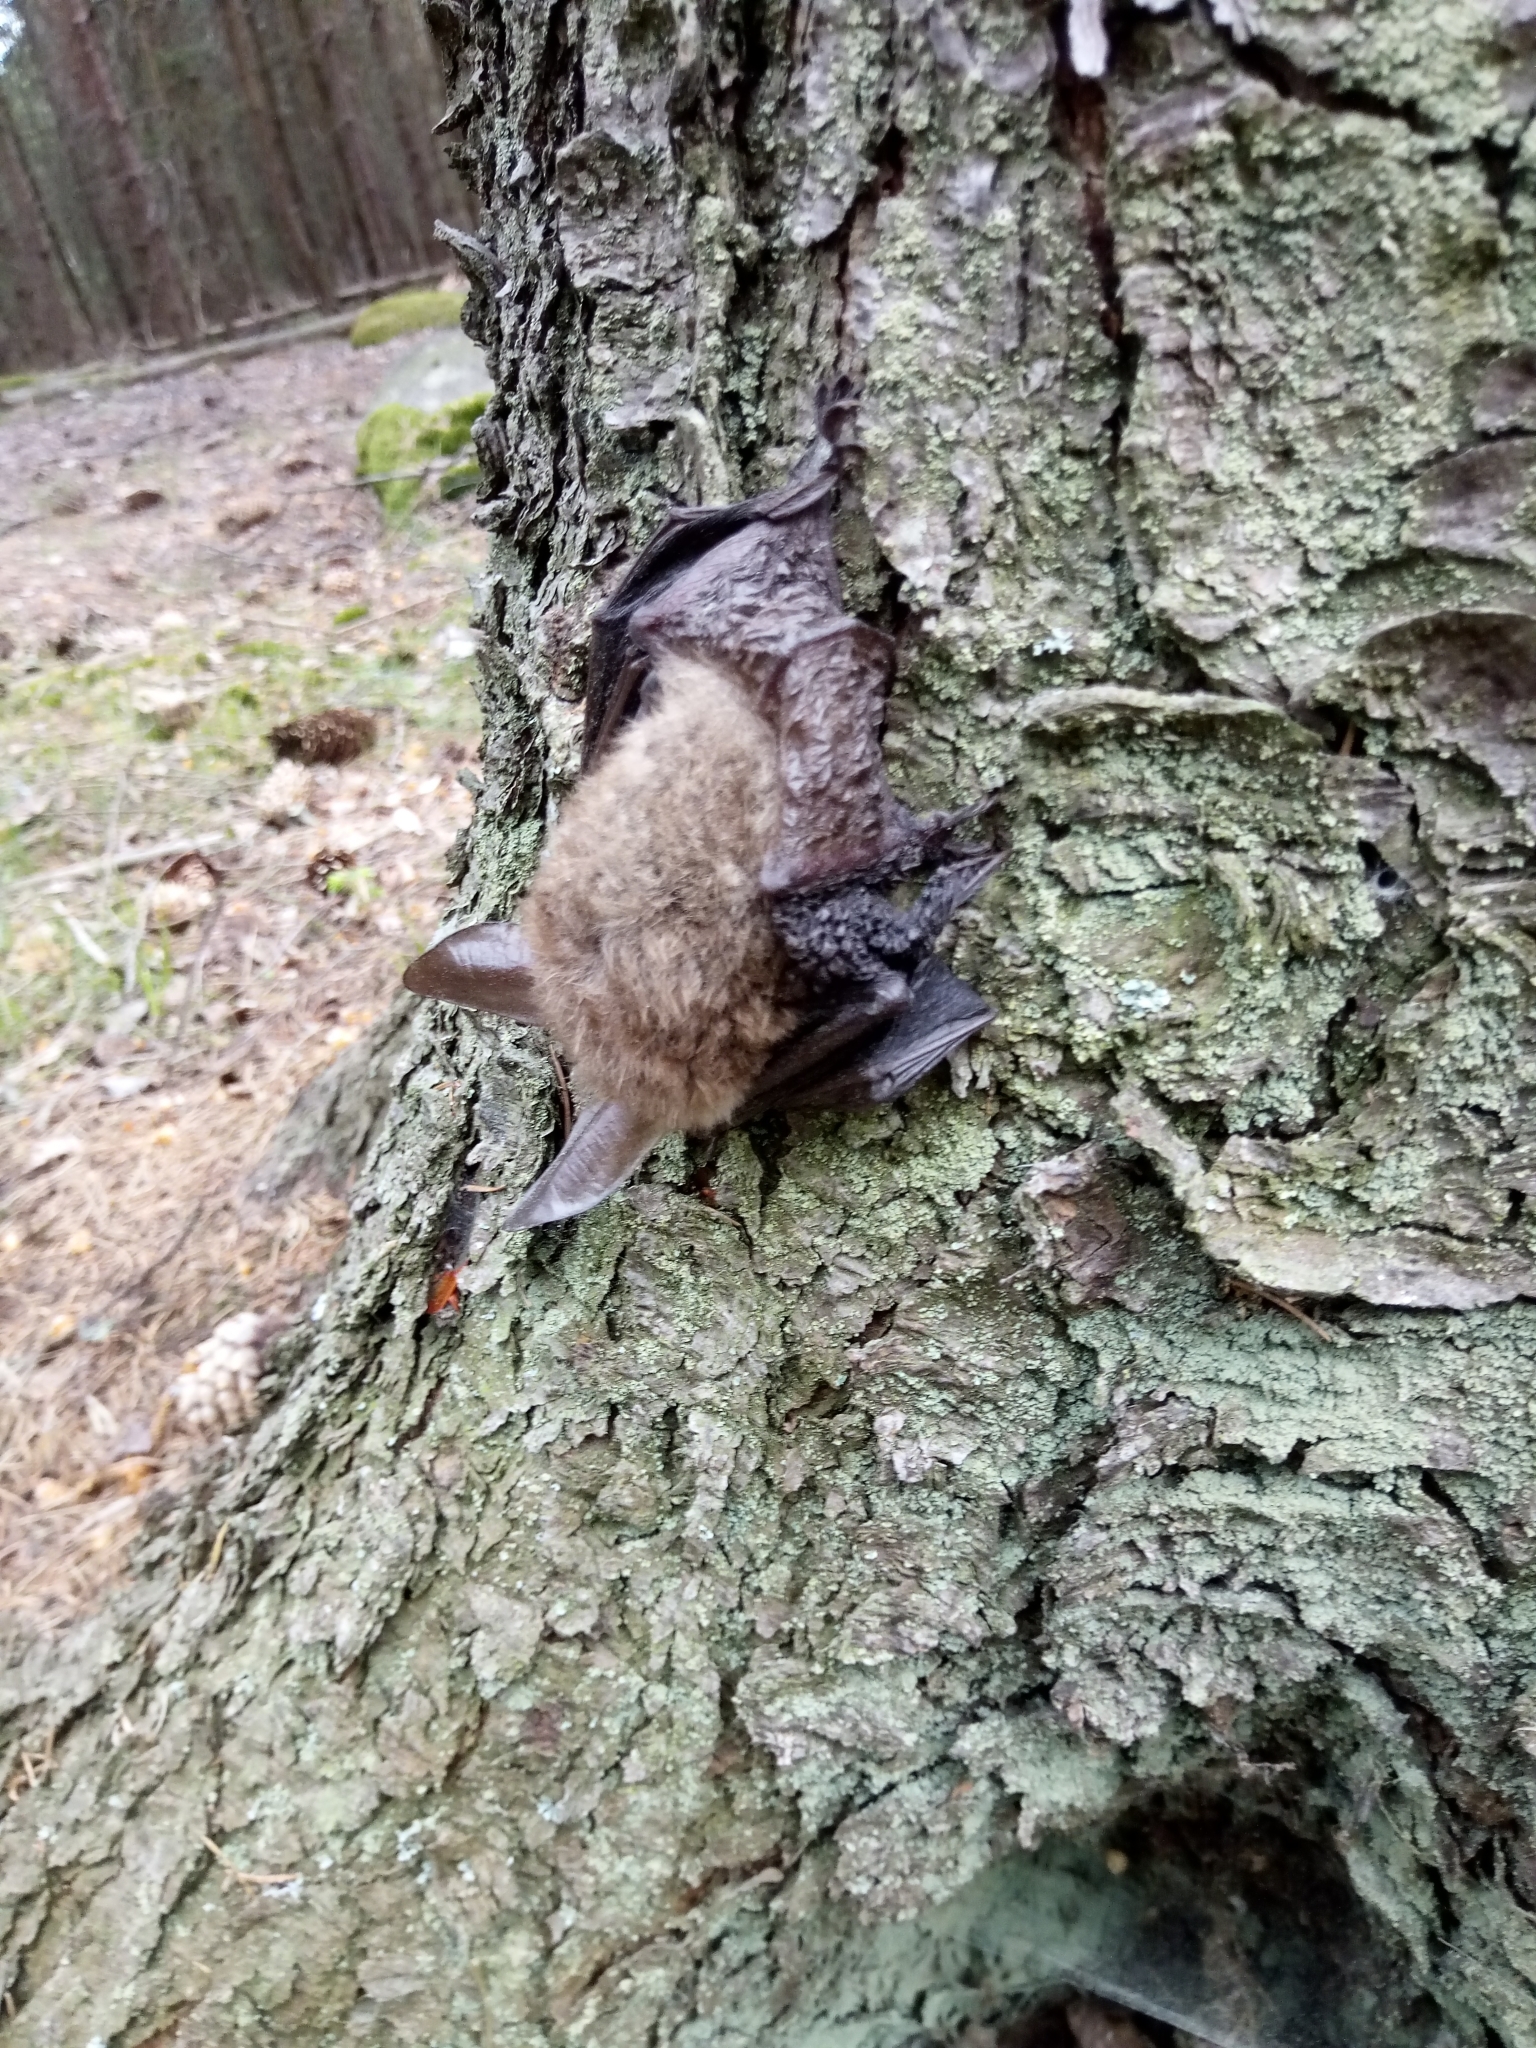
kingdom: Animalia
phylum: Chordata
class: Mammalia
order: Chiroptera
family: Vespertilionidae
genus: Myotis
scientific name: Myotis bechsteinii
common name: Bechstein's myotis
